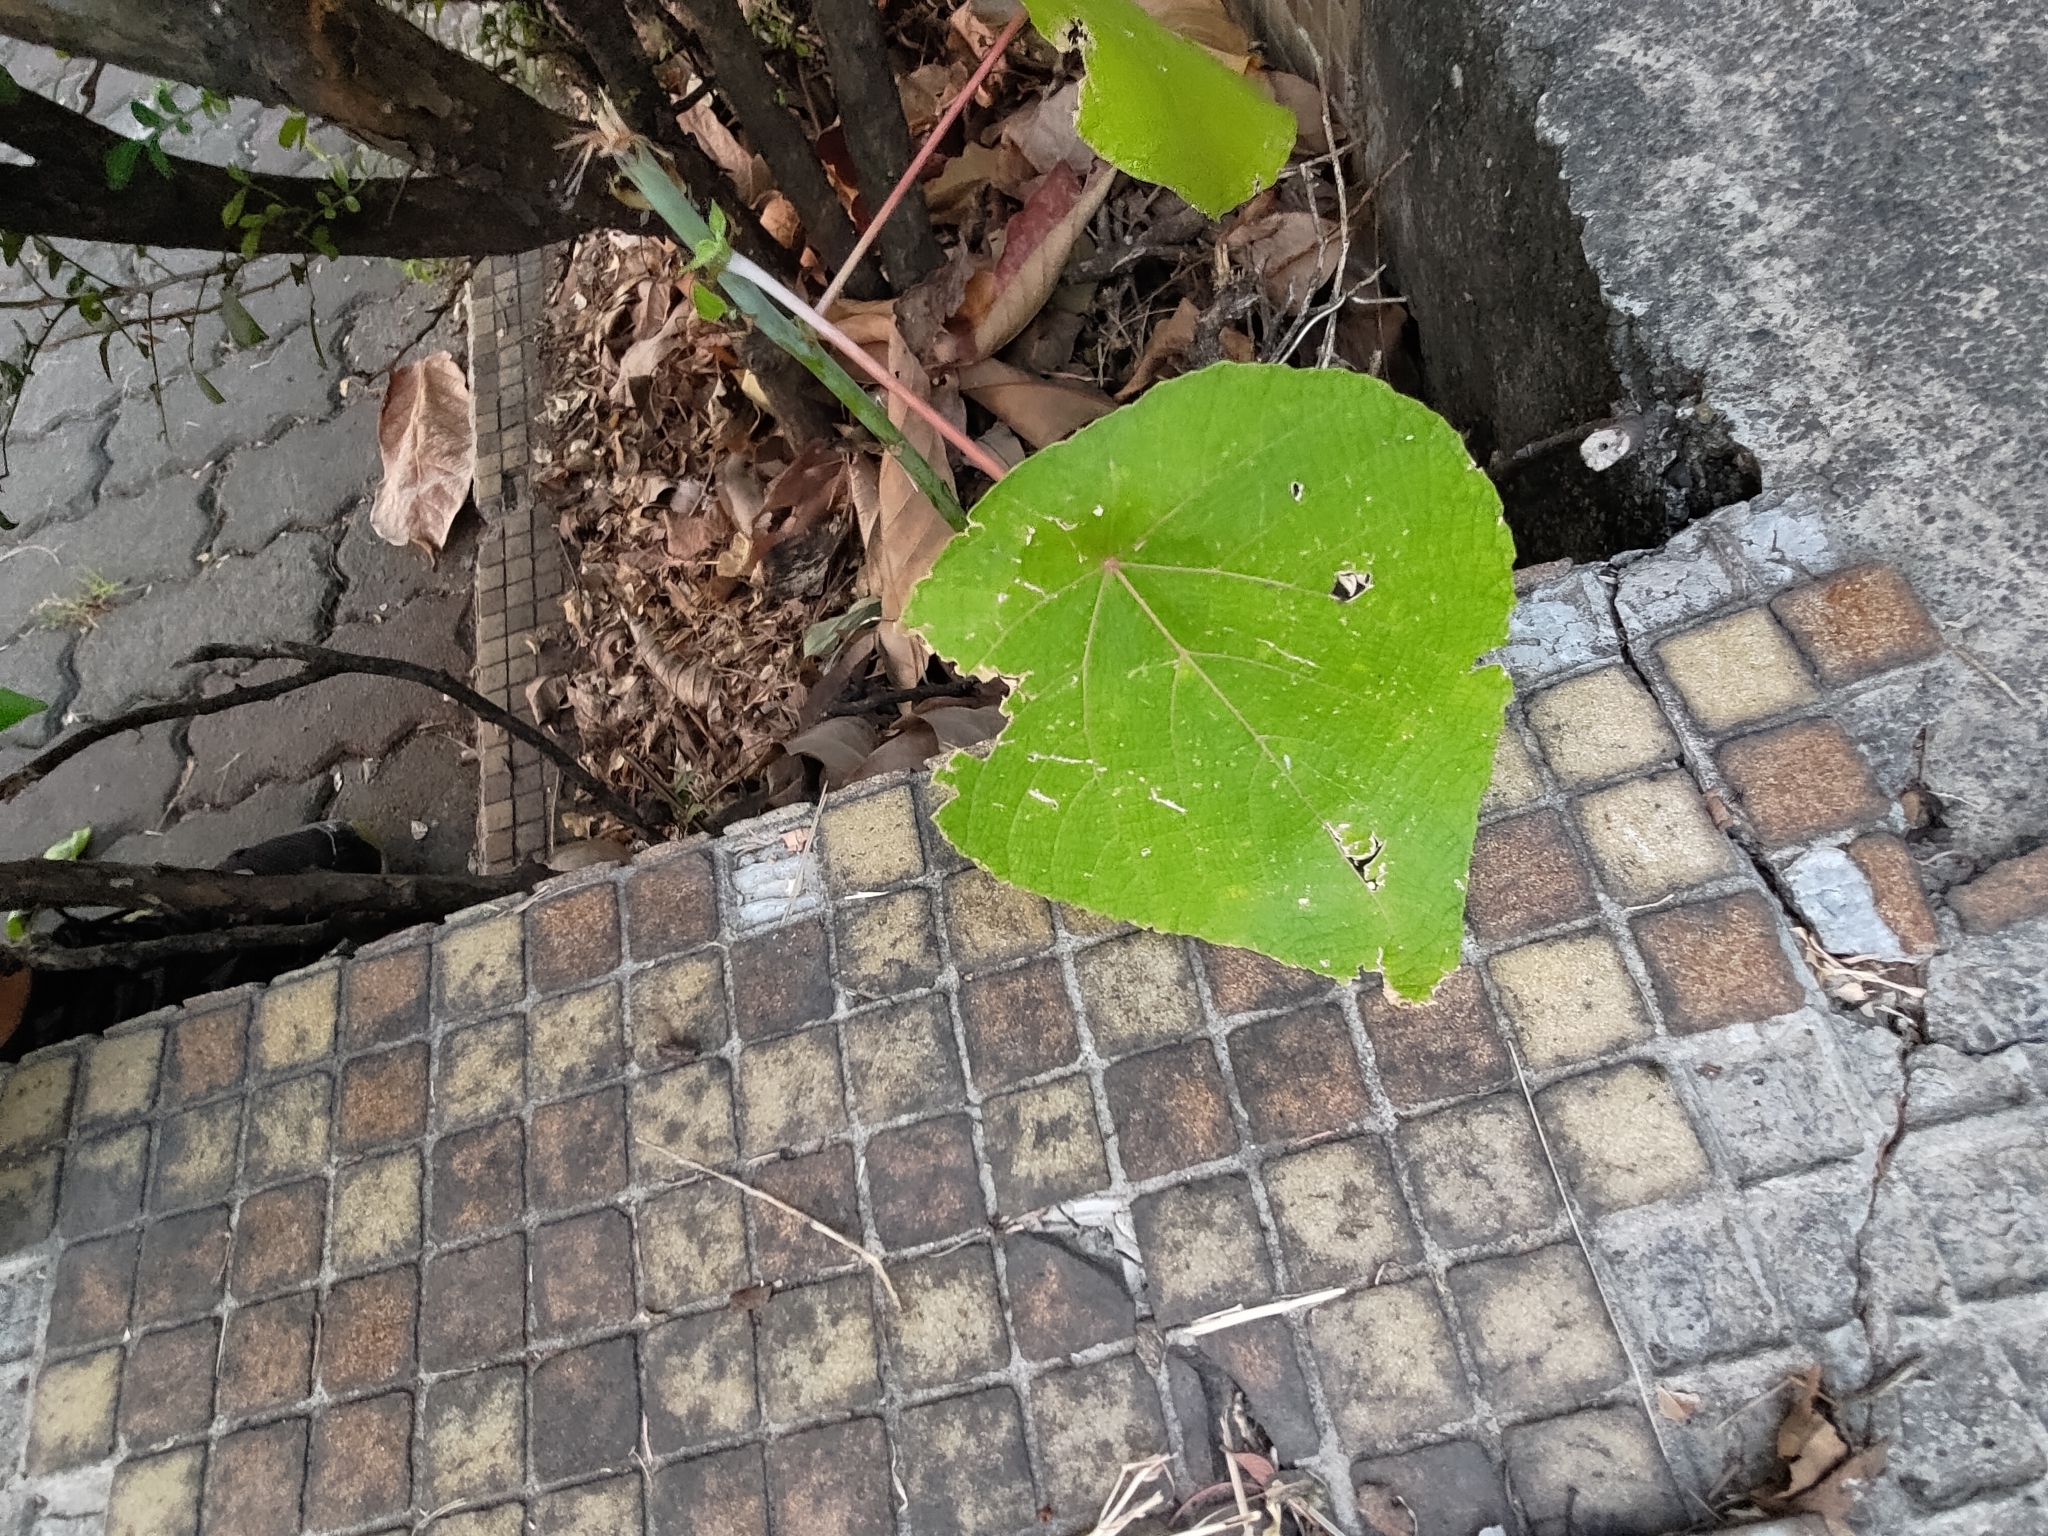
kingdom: Plantae
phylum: Tracheophyta
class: Magnoliopsida
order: Malpighiales
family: Euphorbiaceae
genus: Macaranga
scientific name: Macaranga tanarius
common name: Parasol leaf tree
